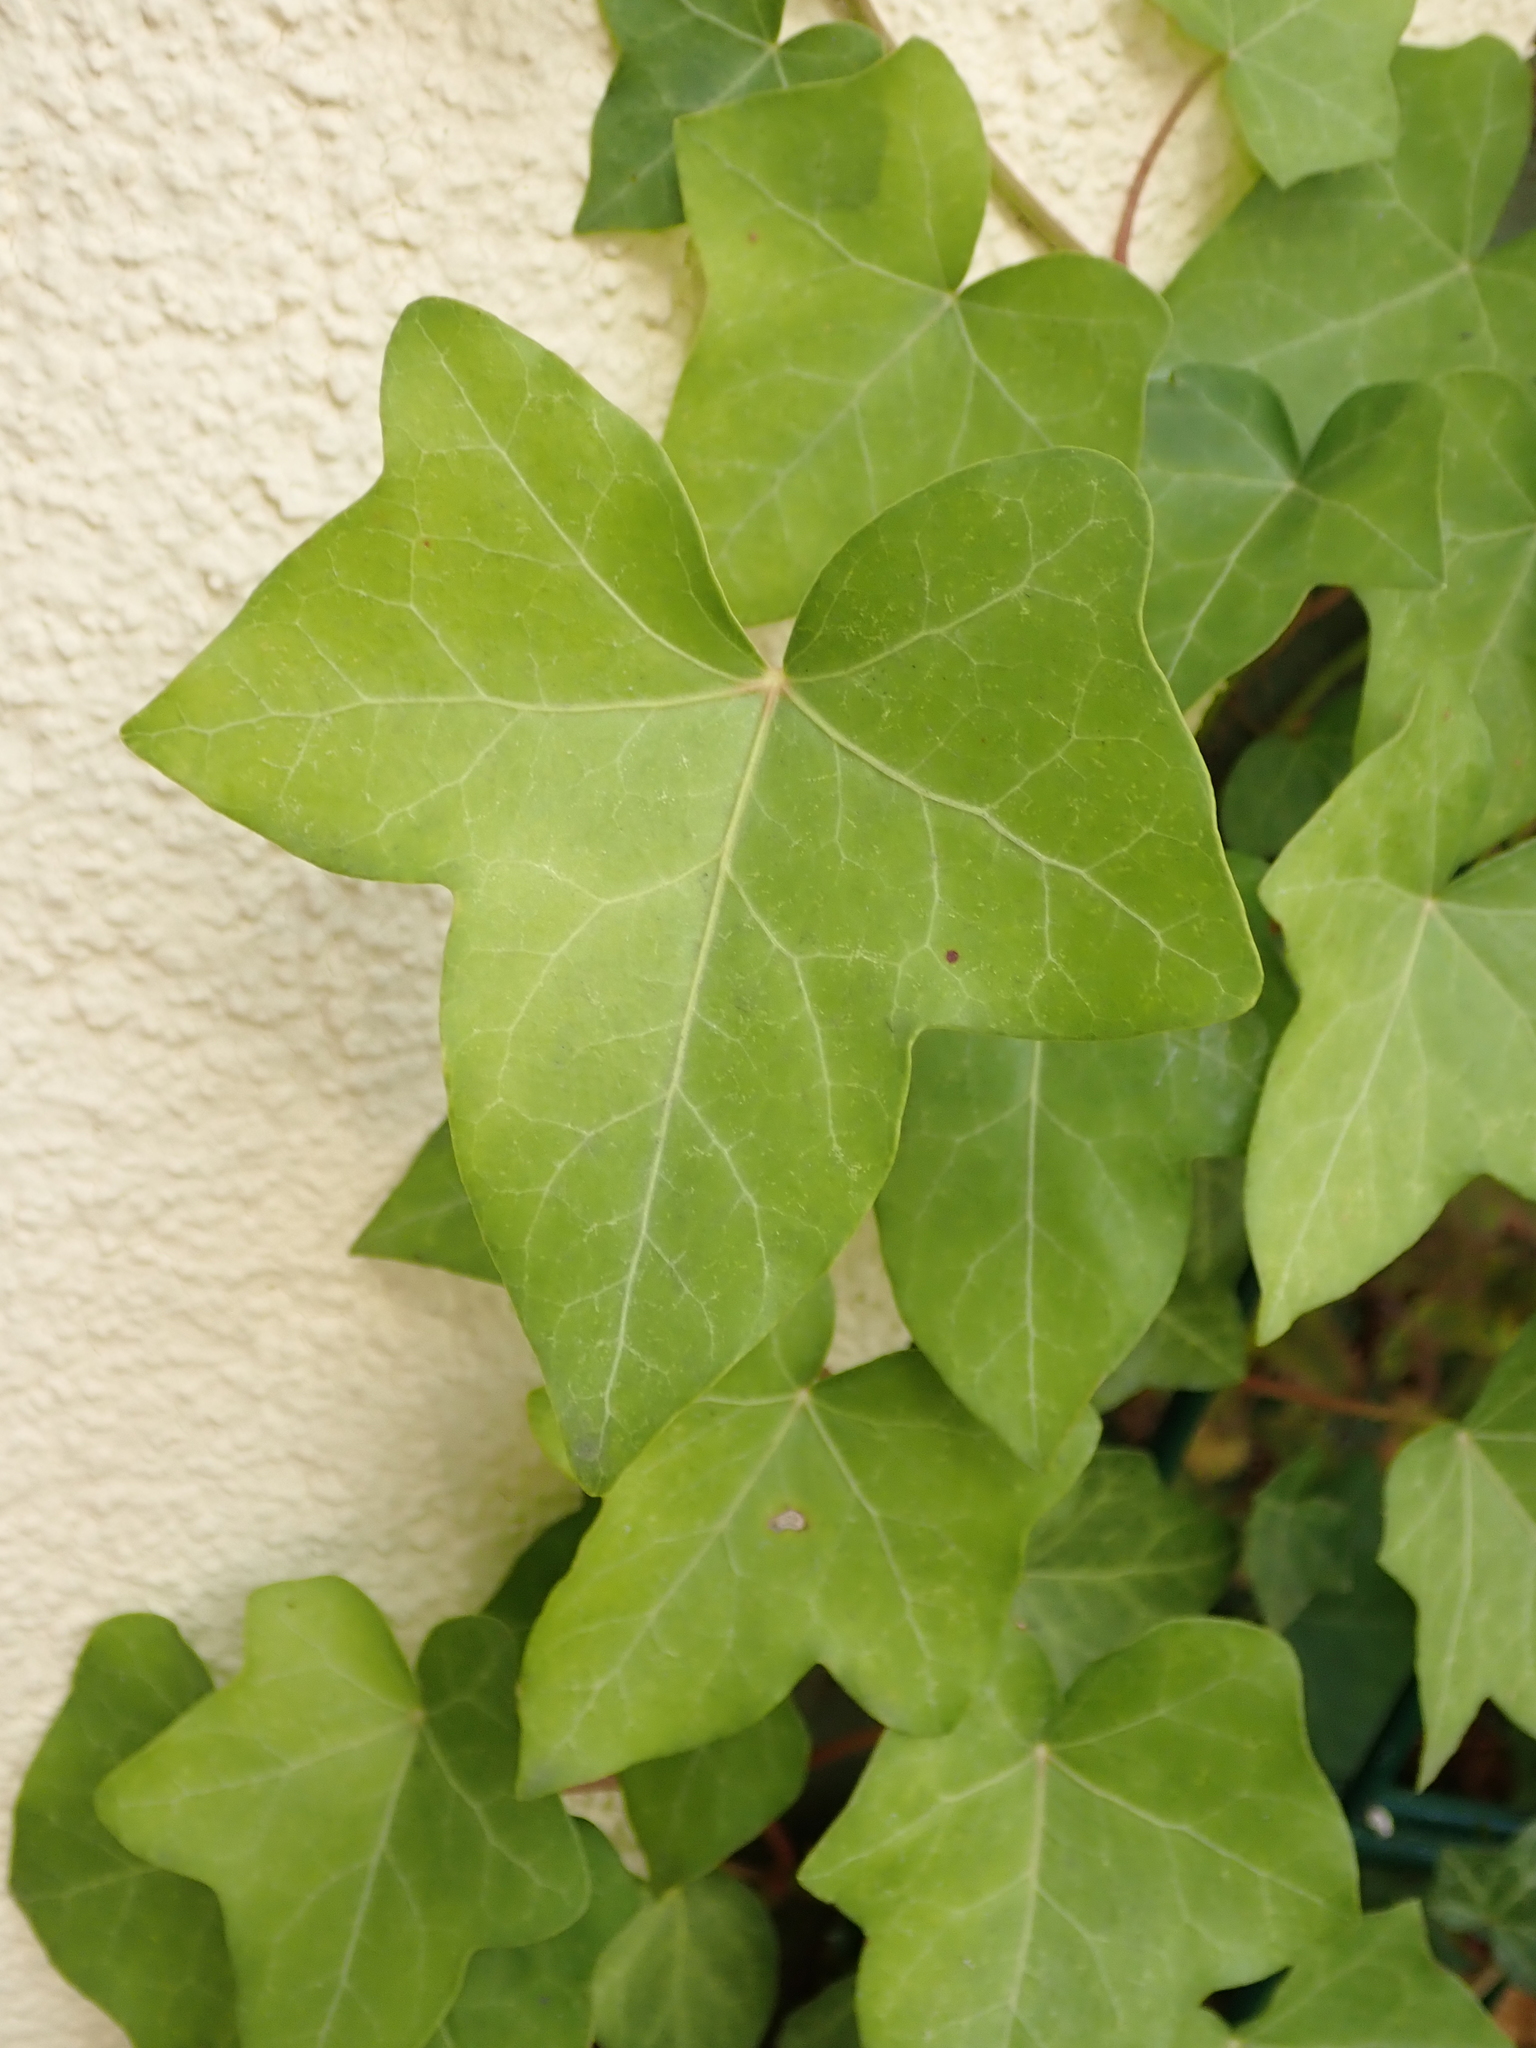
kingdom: Plantae
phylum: Tracheophyta
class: Magnoliopsida
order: Apiales
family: Araliaceae
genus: Hedera
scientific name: Hedera helix
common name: Ivy
